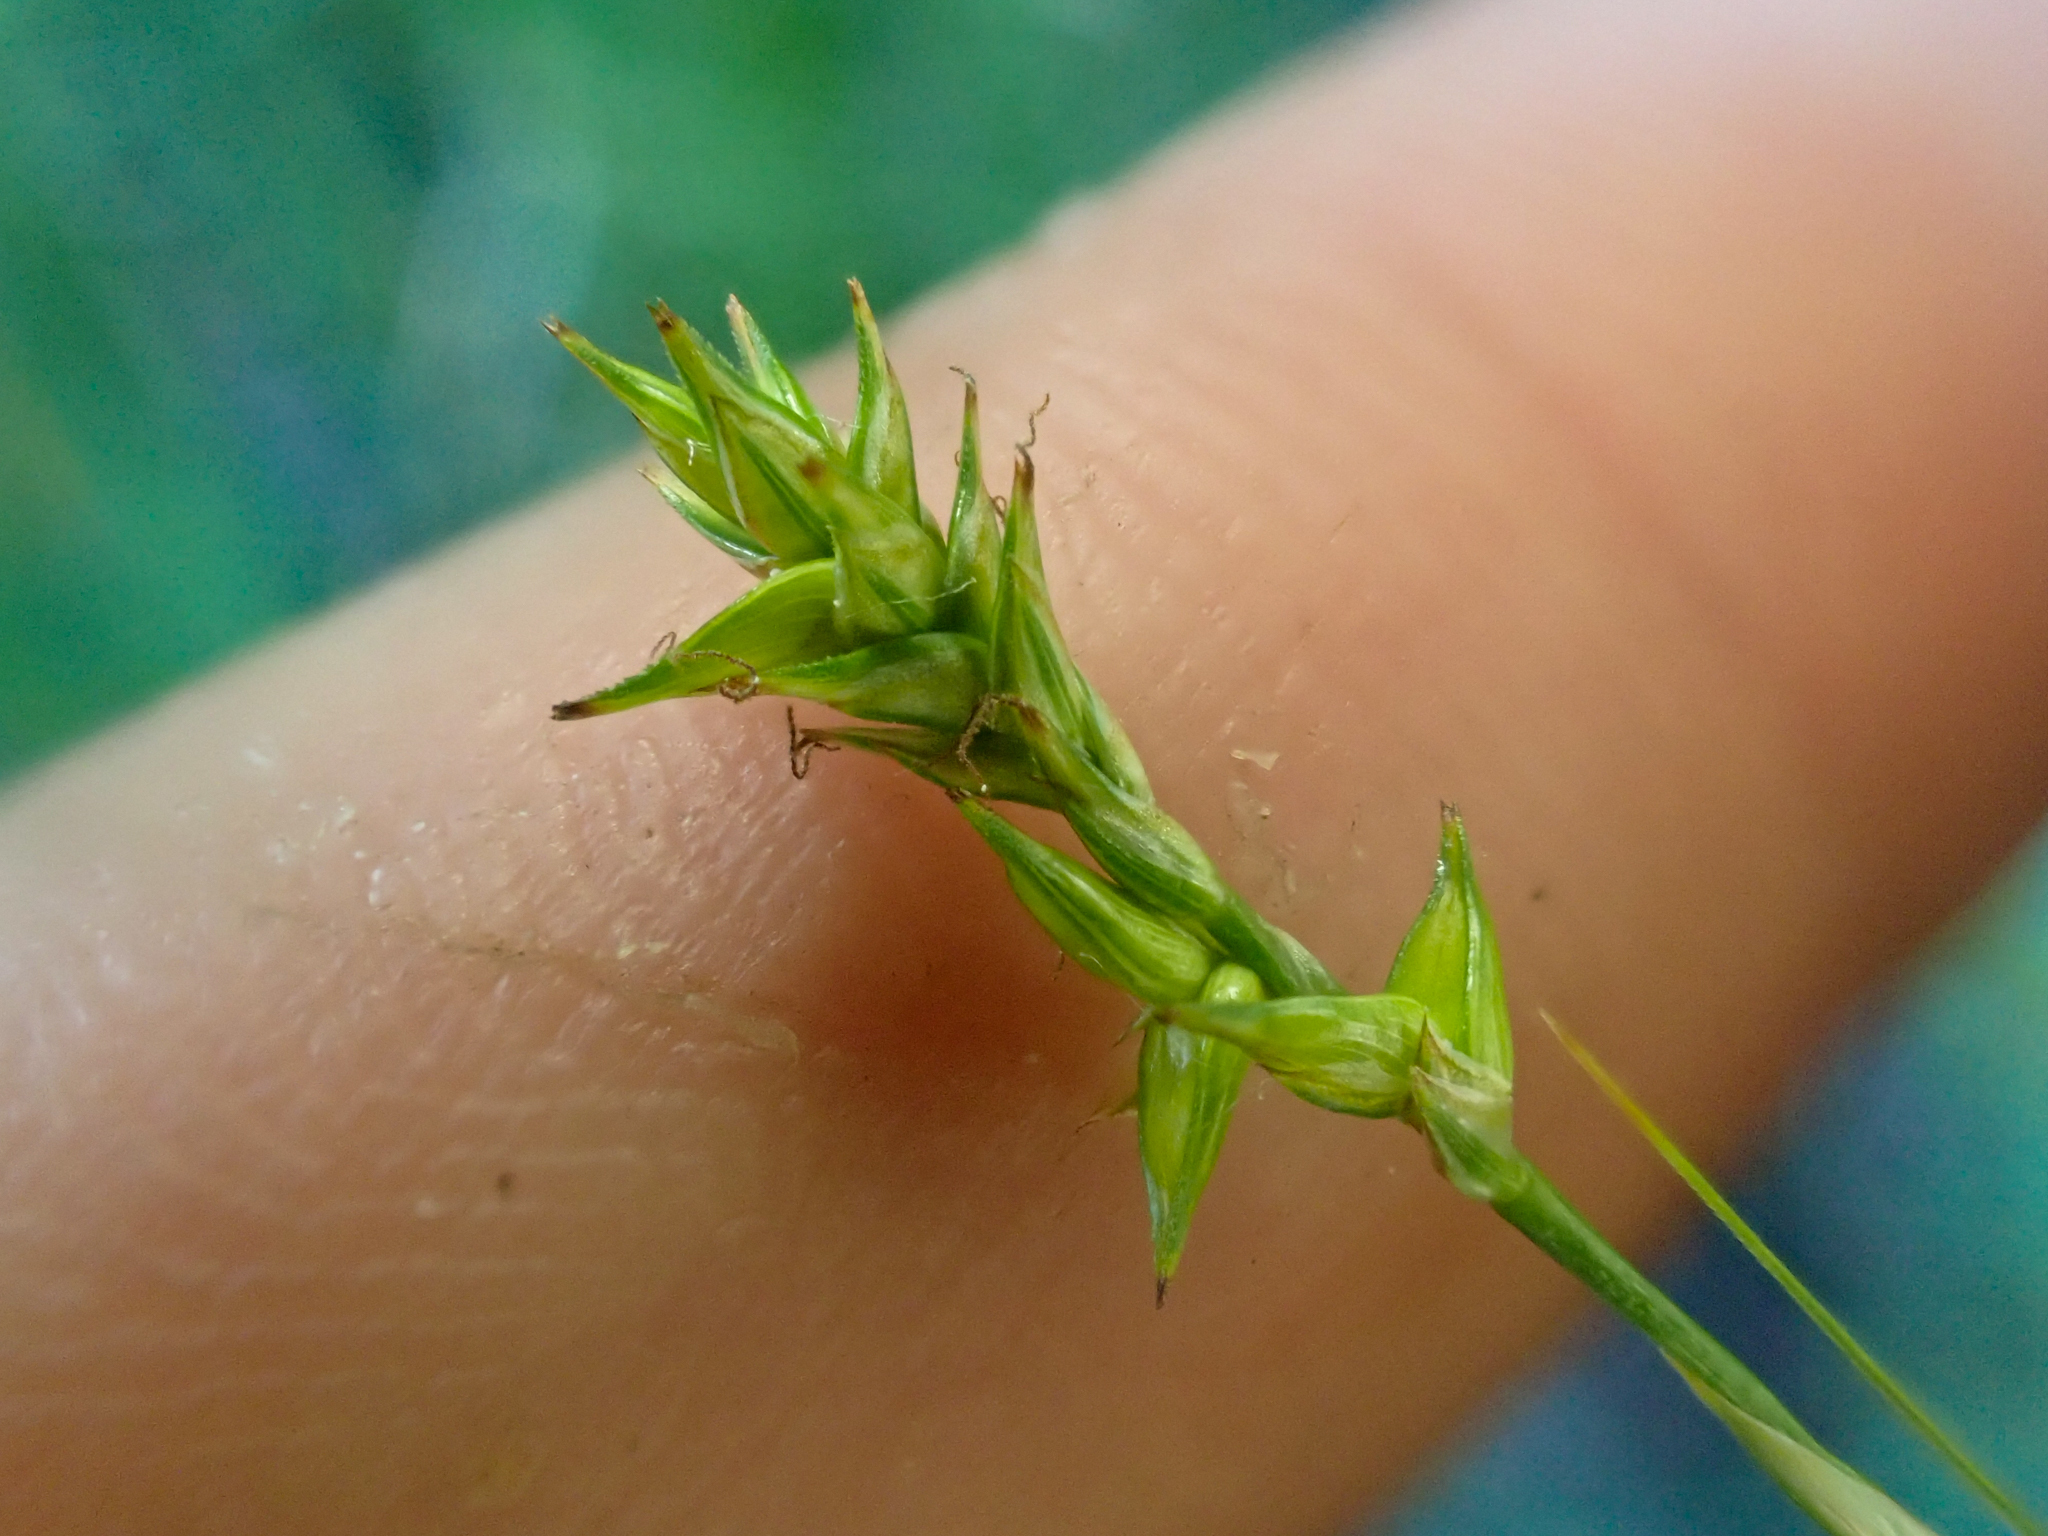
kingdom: Plantae
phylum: Tracheophyta
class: Liliopsida
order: Poales
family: Cyperaceae
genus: Carex
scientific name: Carex echinata
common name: Star sedge
